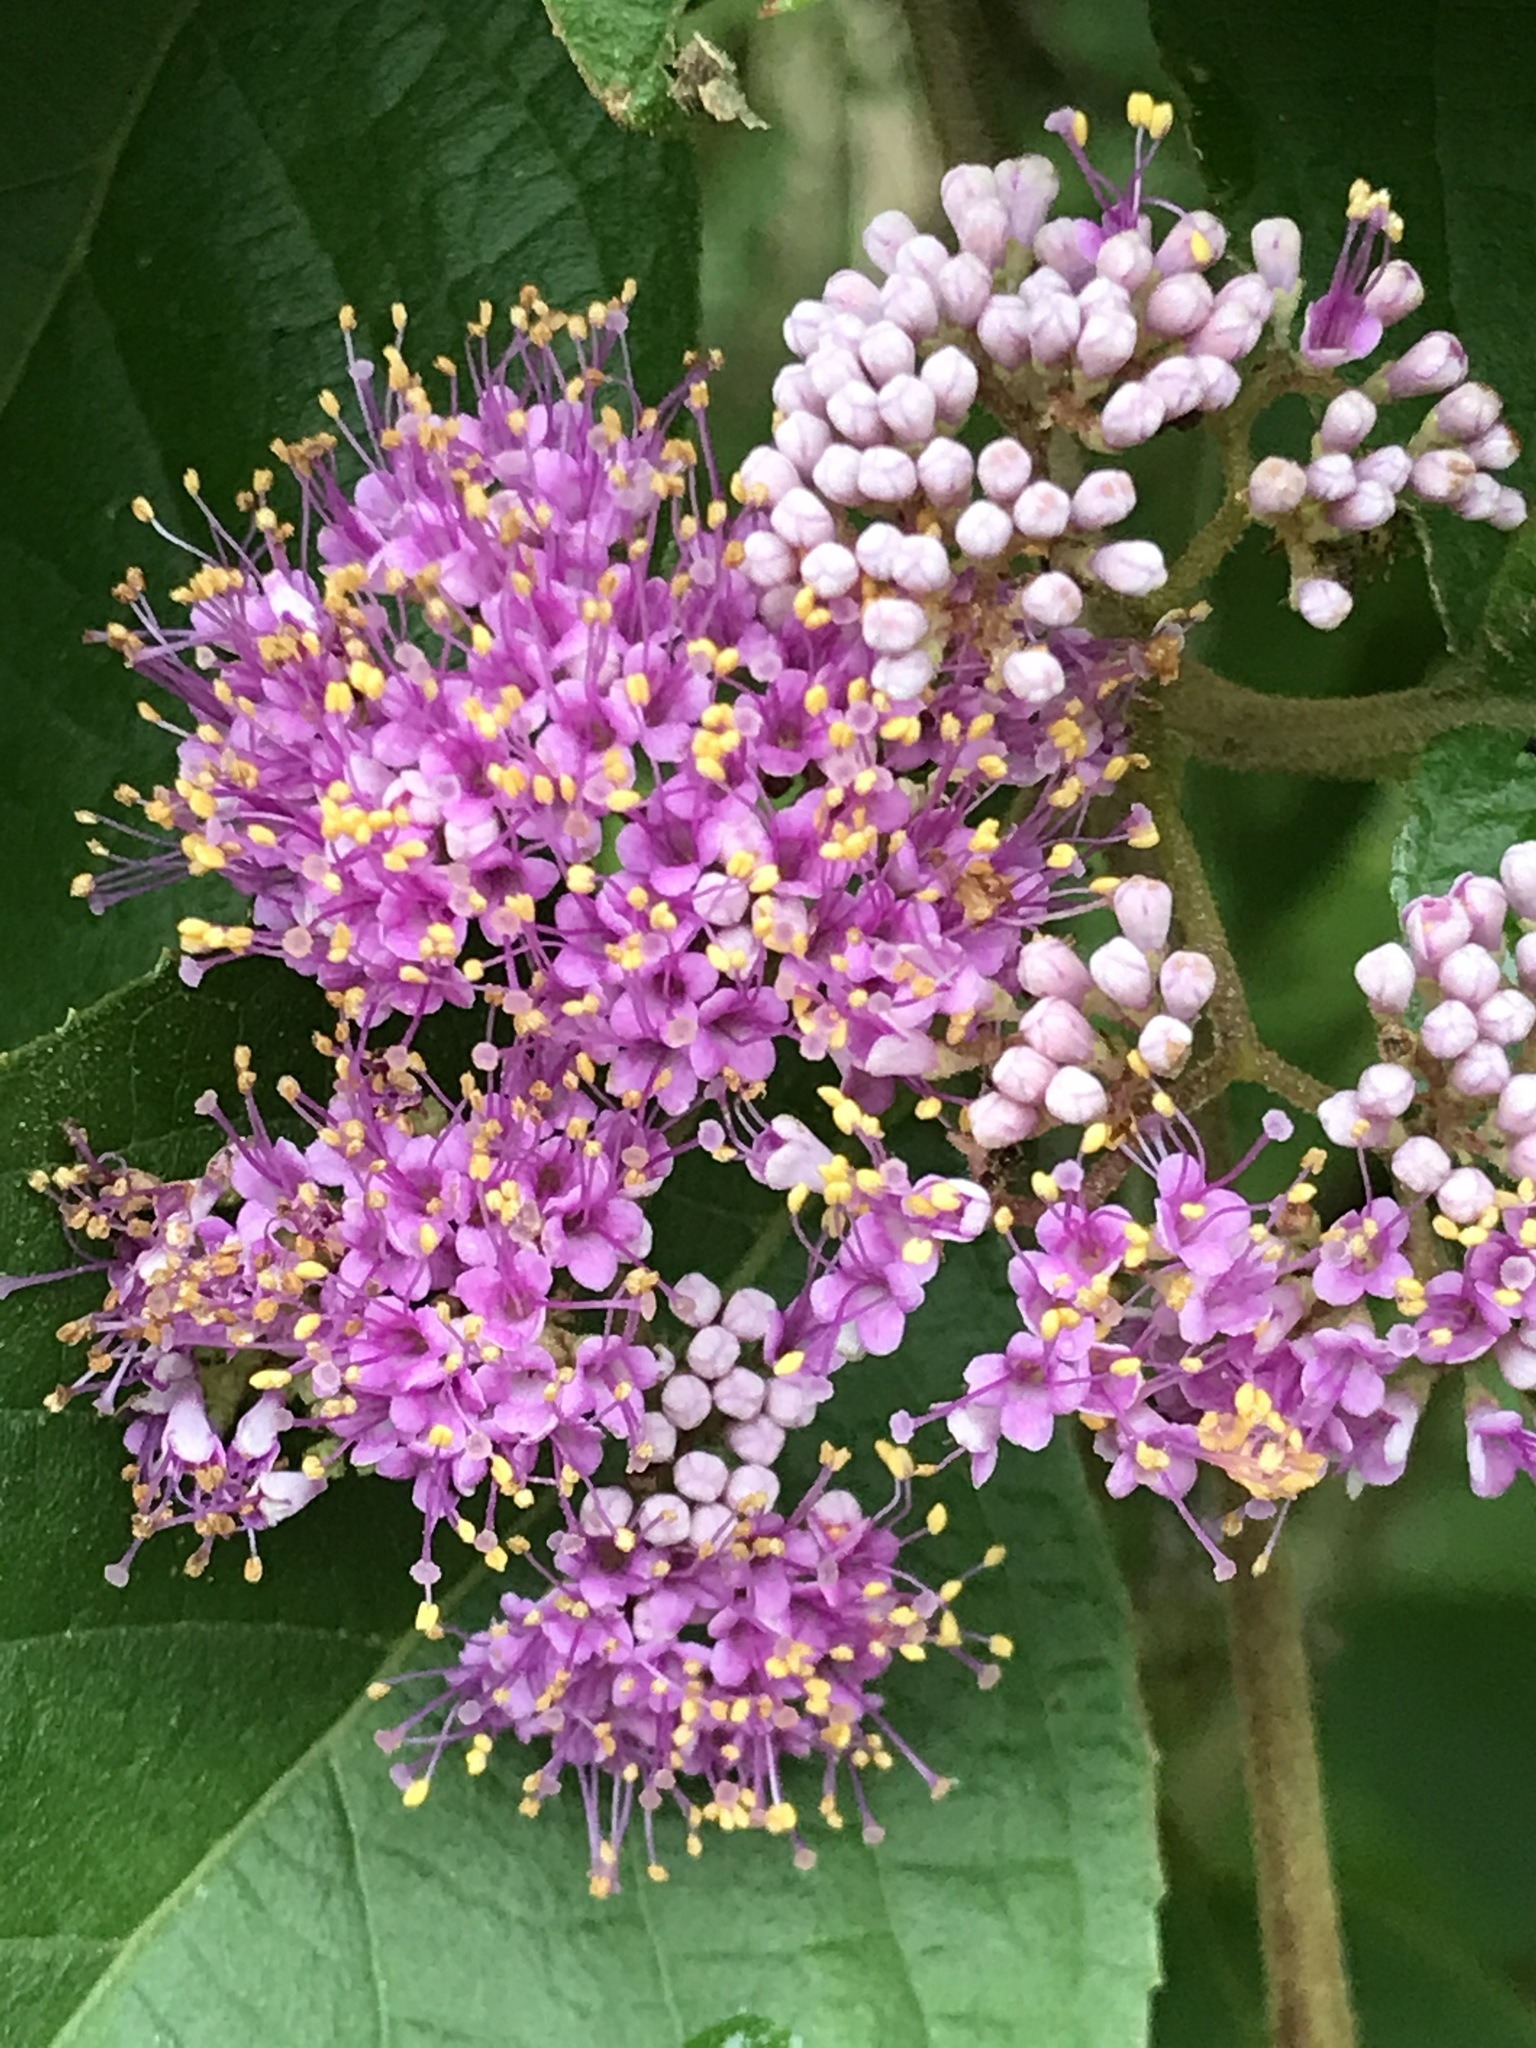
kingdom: Plantae
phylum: Tracheophyta
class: Magnoliopsida
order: Lamiales
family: Lamiaceae
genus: Callicarpa
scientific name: Callicarpa pedunculata
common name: Velvetleaf
